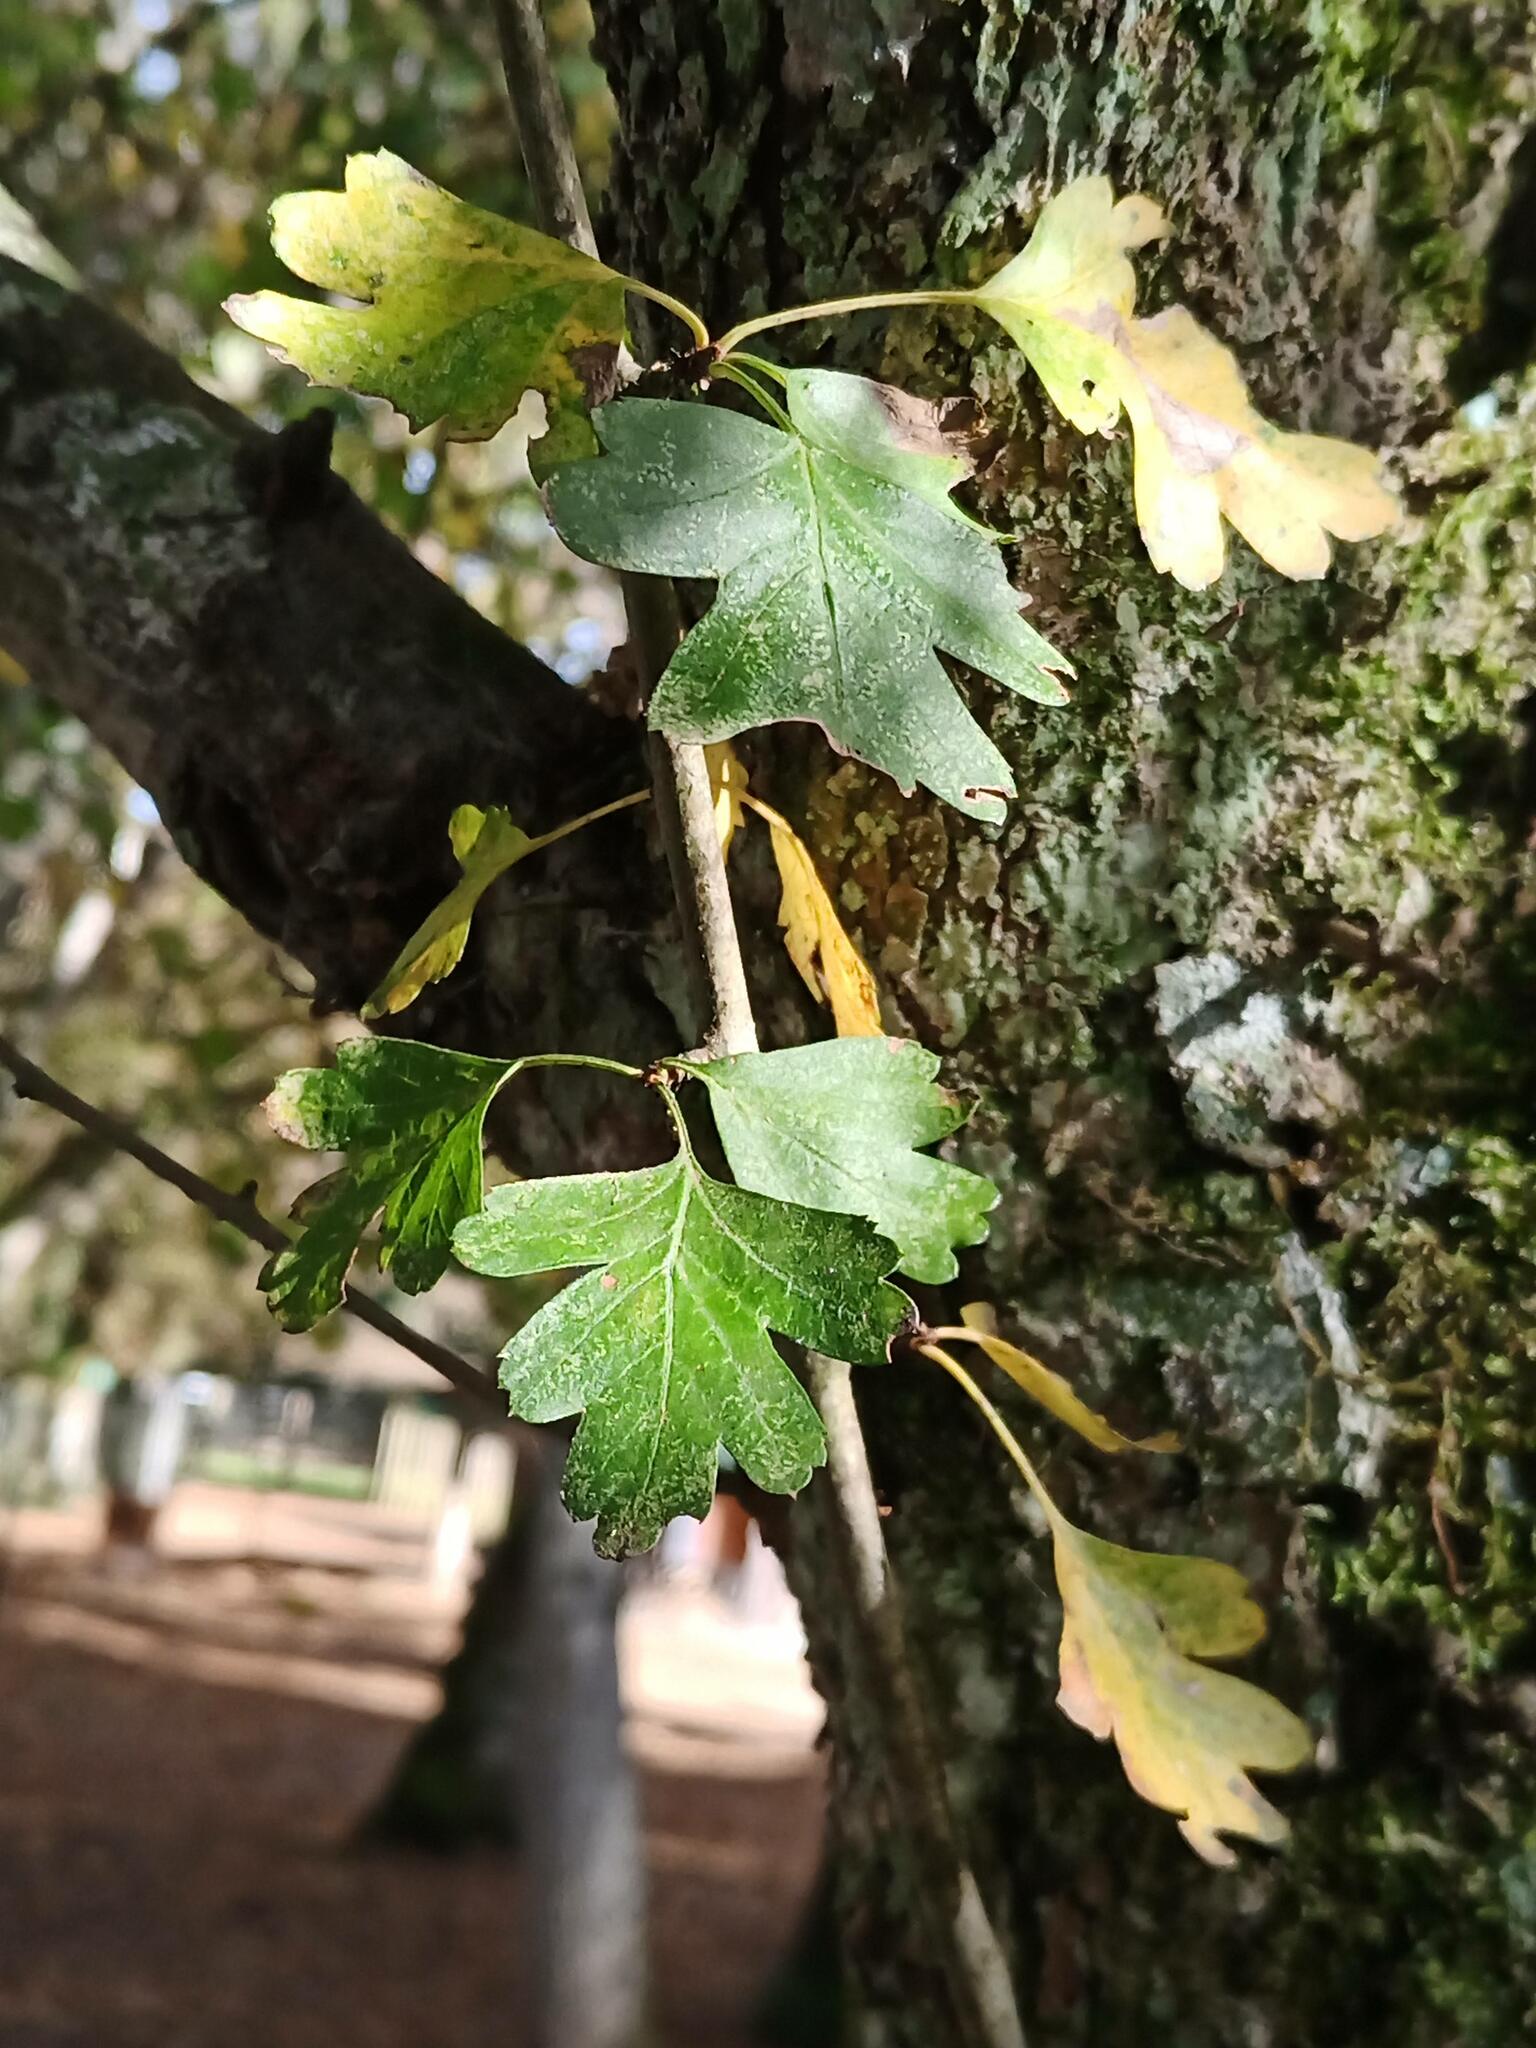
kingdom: Plantae
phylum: Tracheophyta
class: Magnoliopsida
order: Rosales
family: Rosaceae
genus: Crataegus
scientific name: Crataegus monogyna
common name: Hawthorn
